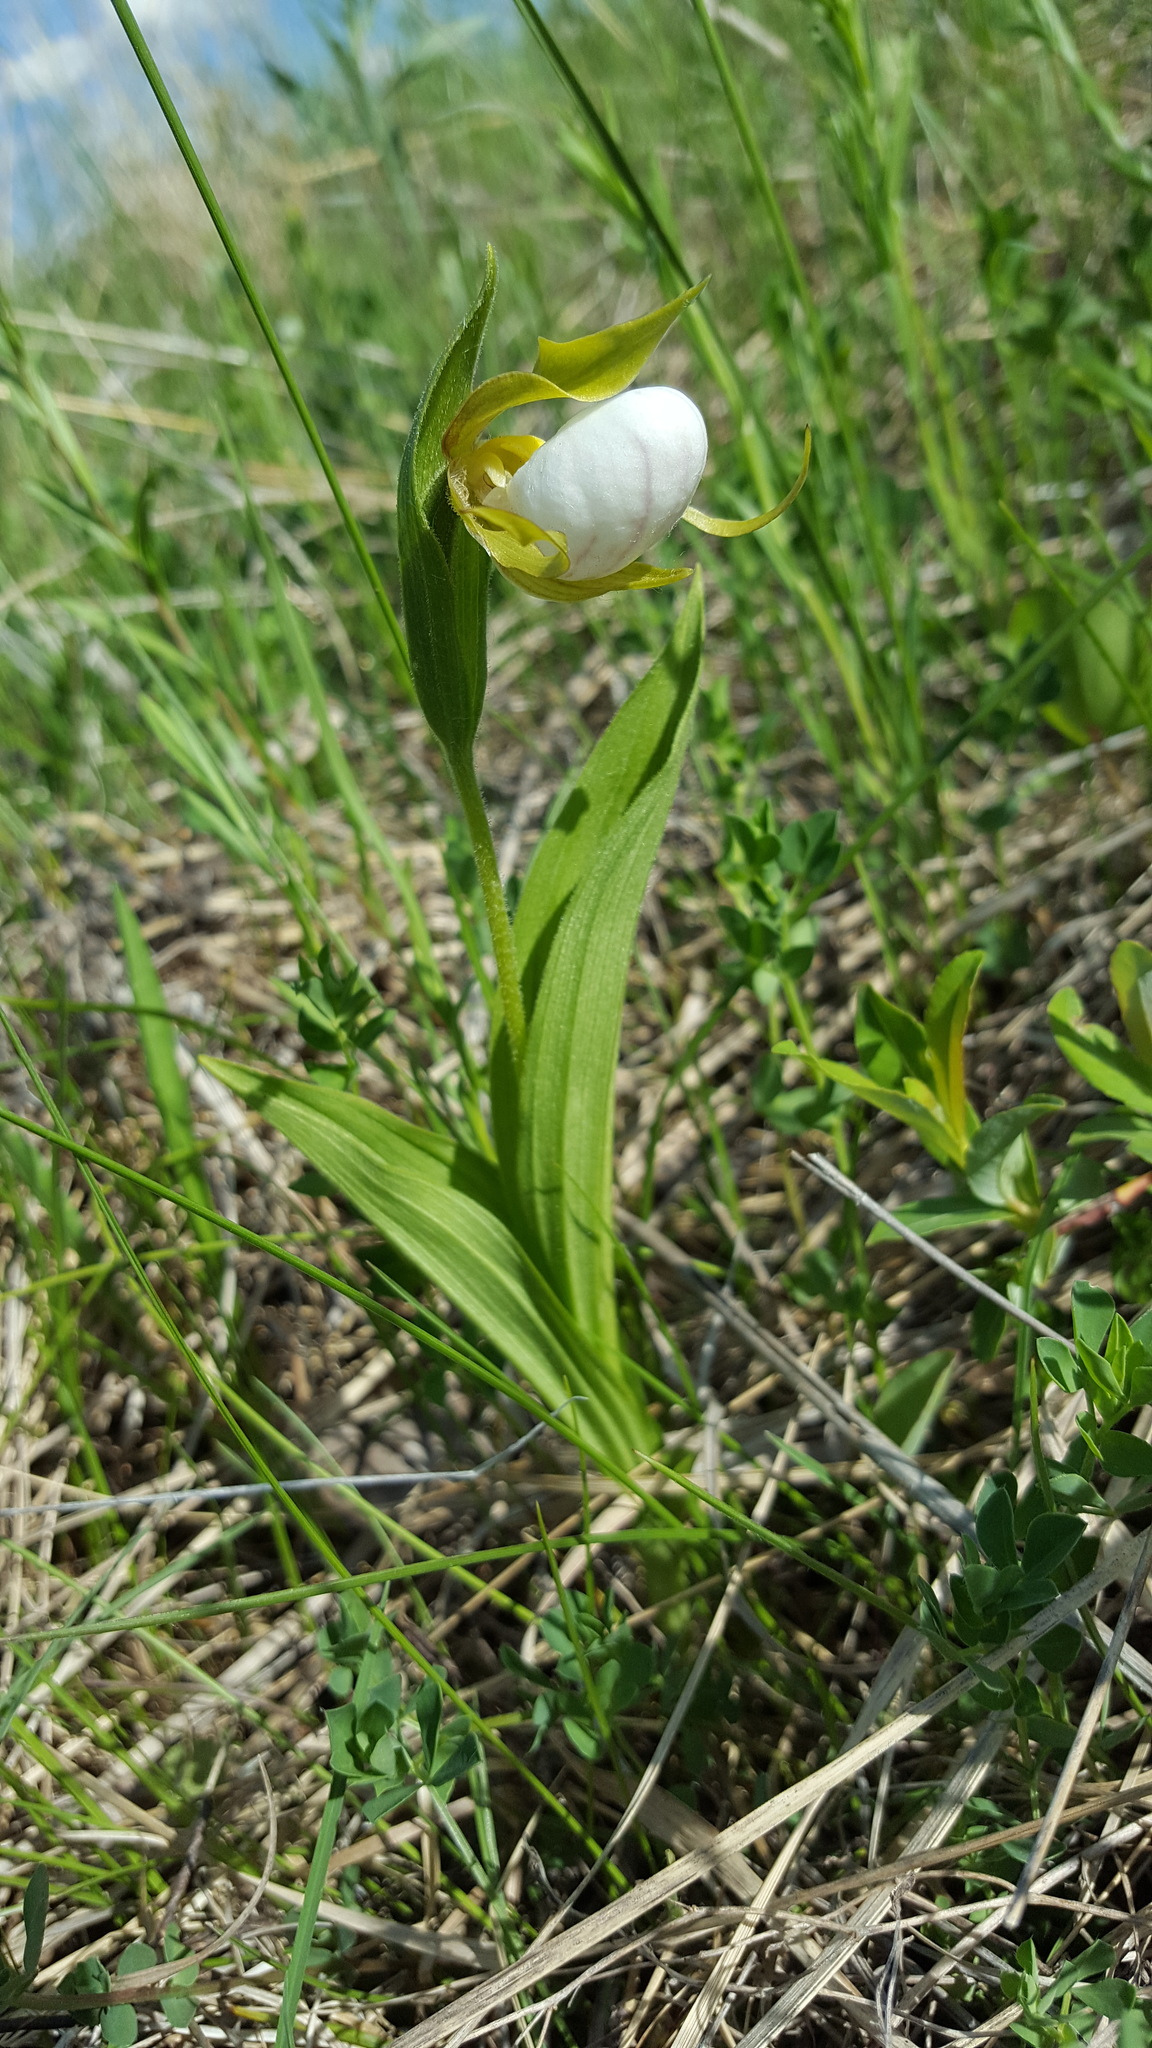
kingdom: Plantae
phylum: Tracheophyta
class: Liliopsida
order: Asparagales
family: Orchidaceae
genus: Cypripedium
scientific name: Cypripedium candidum
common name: White lady's-slipper
